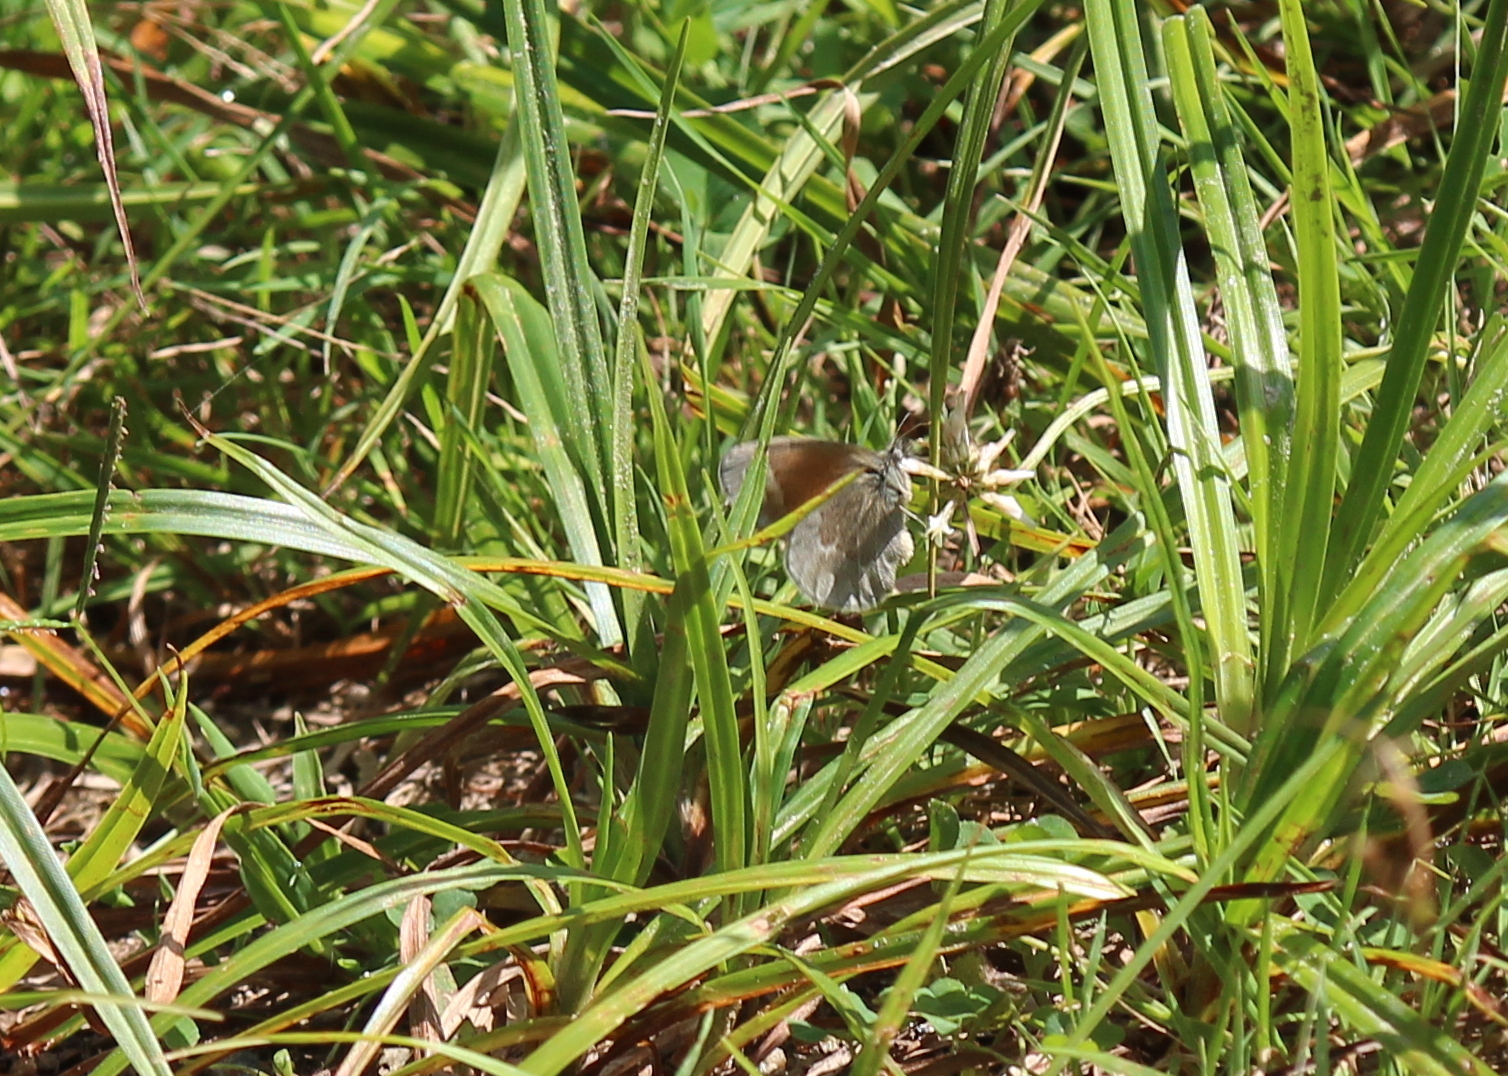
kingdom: Animalia
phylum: Arthropoda
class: Insecta
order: Lepidoptera
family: Nymphalidae
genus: Coenonympha
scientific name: Coenonympha california
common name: Common ringlet
